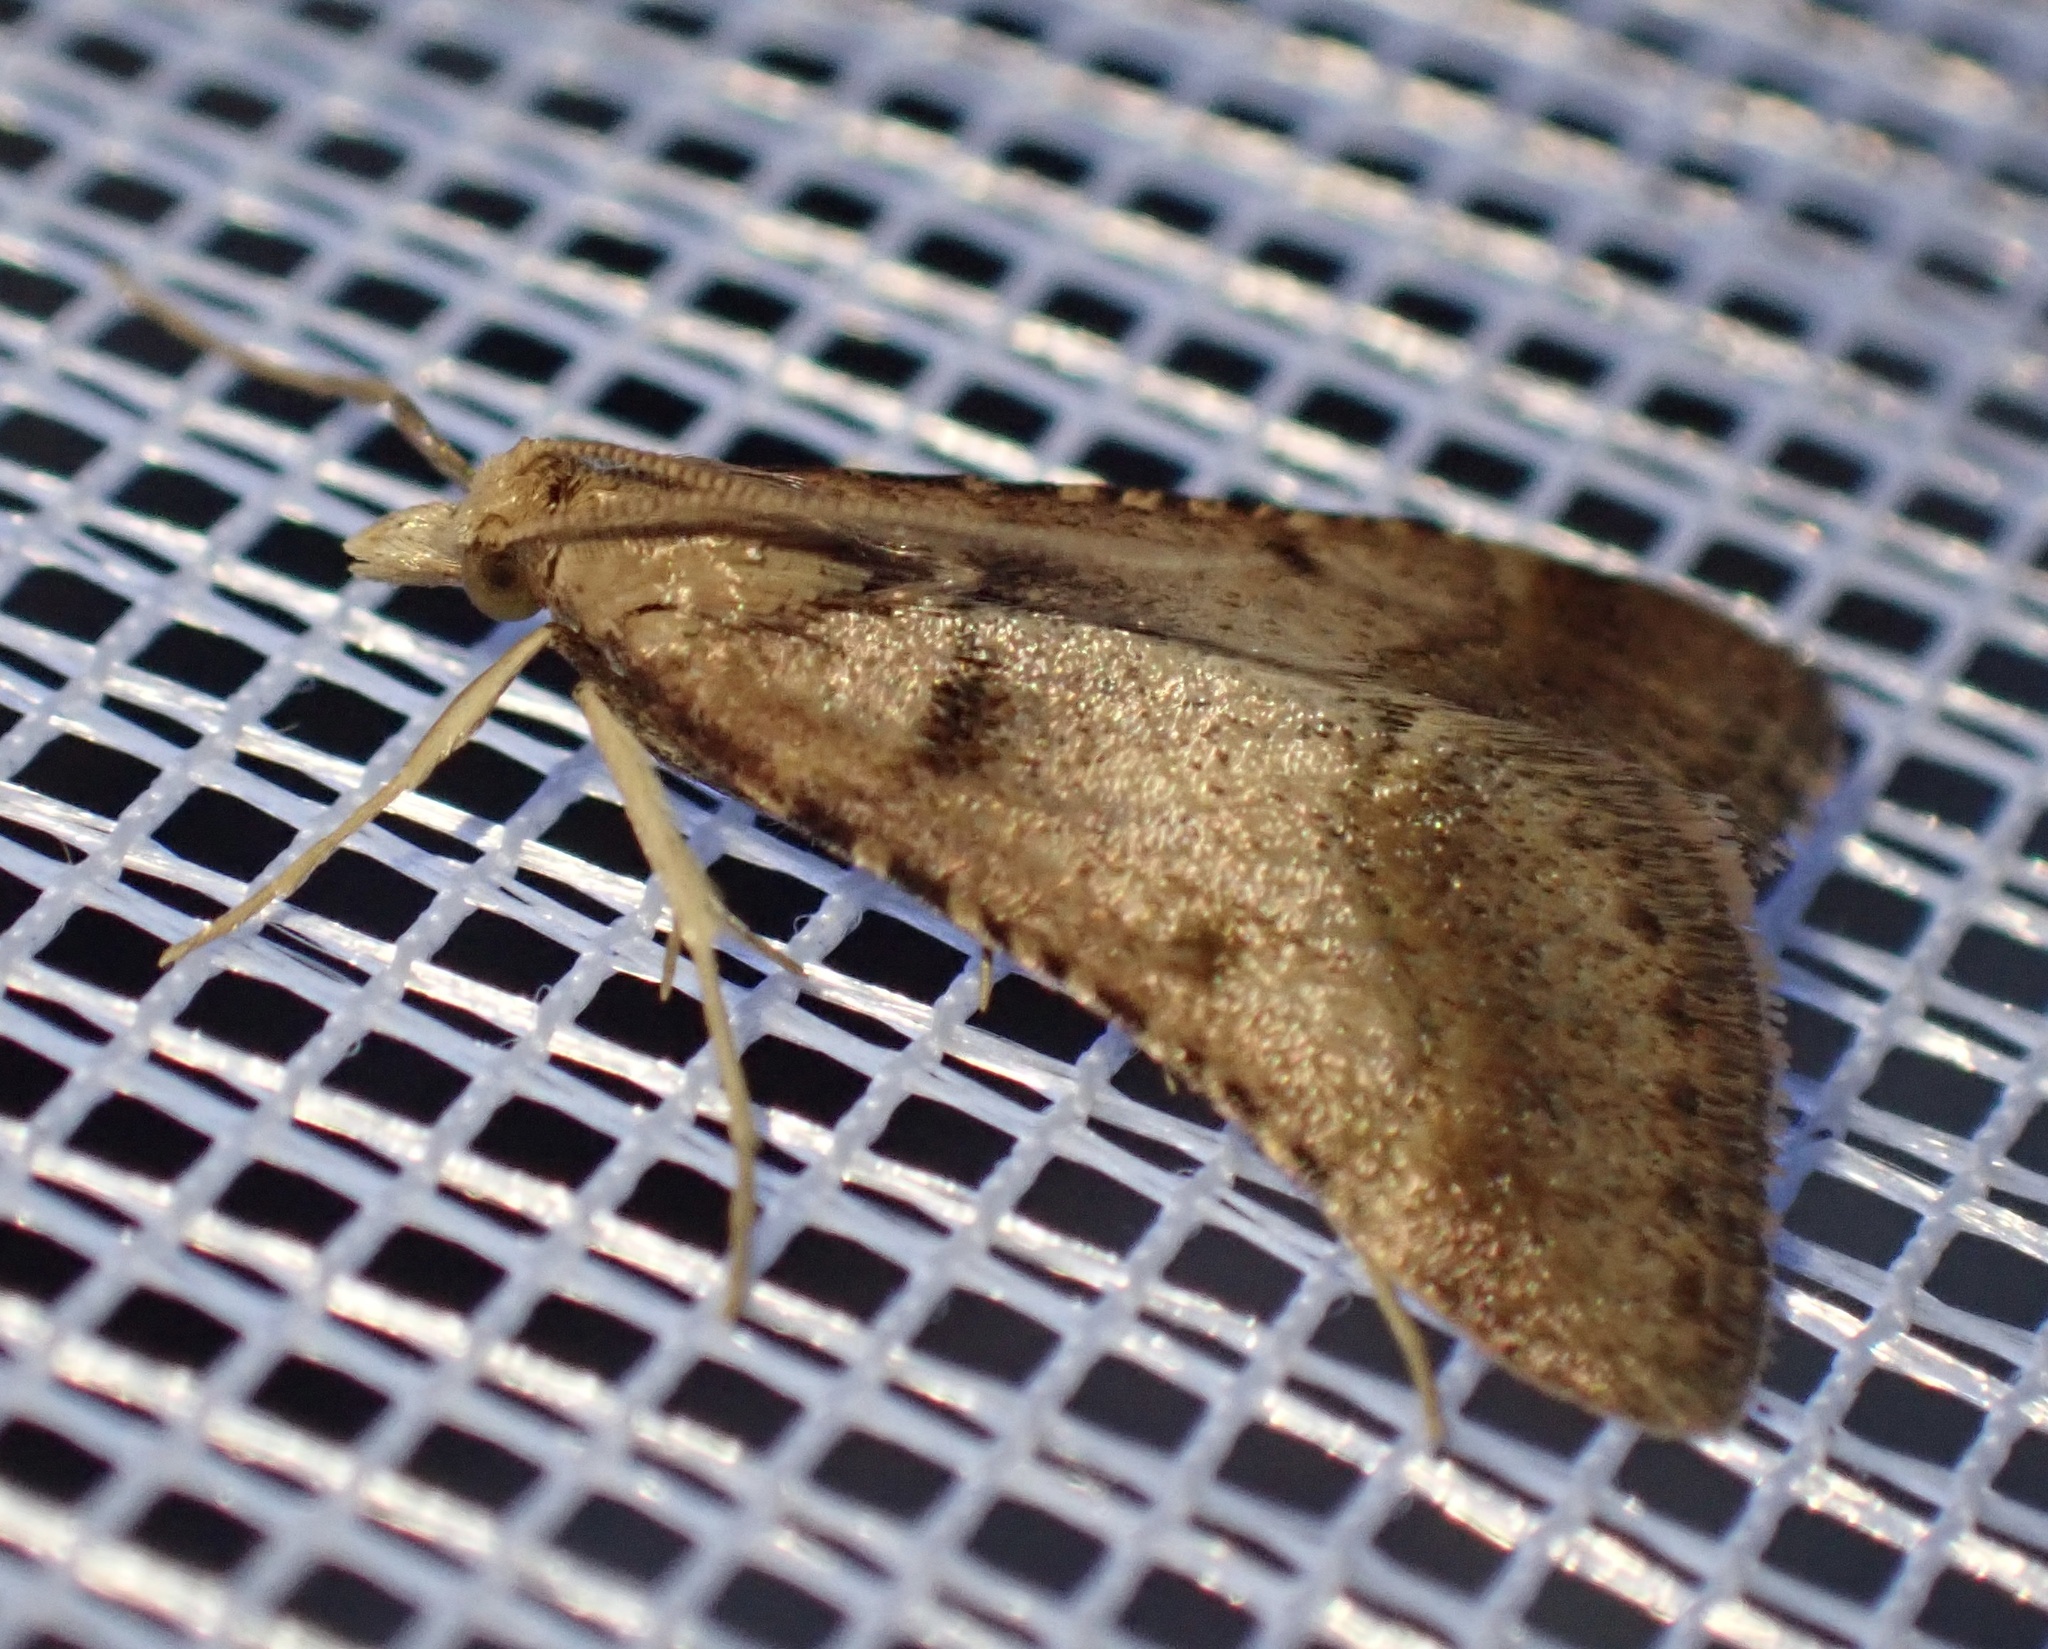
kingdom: Animalia
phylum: Arthropoda
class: Insecta
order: Lepidoptera
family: Pyralidae
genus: Stemmatophora
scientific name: Stemmatophora brunnealis
